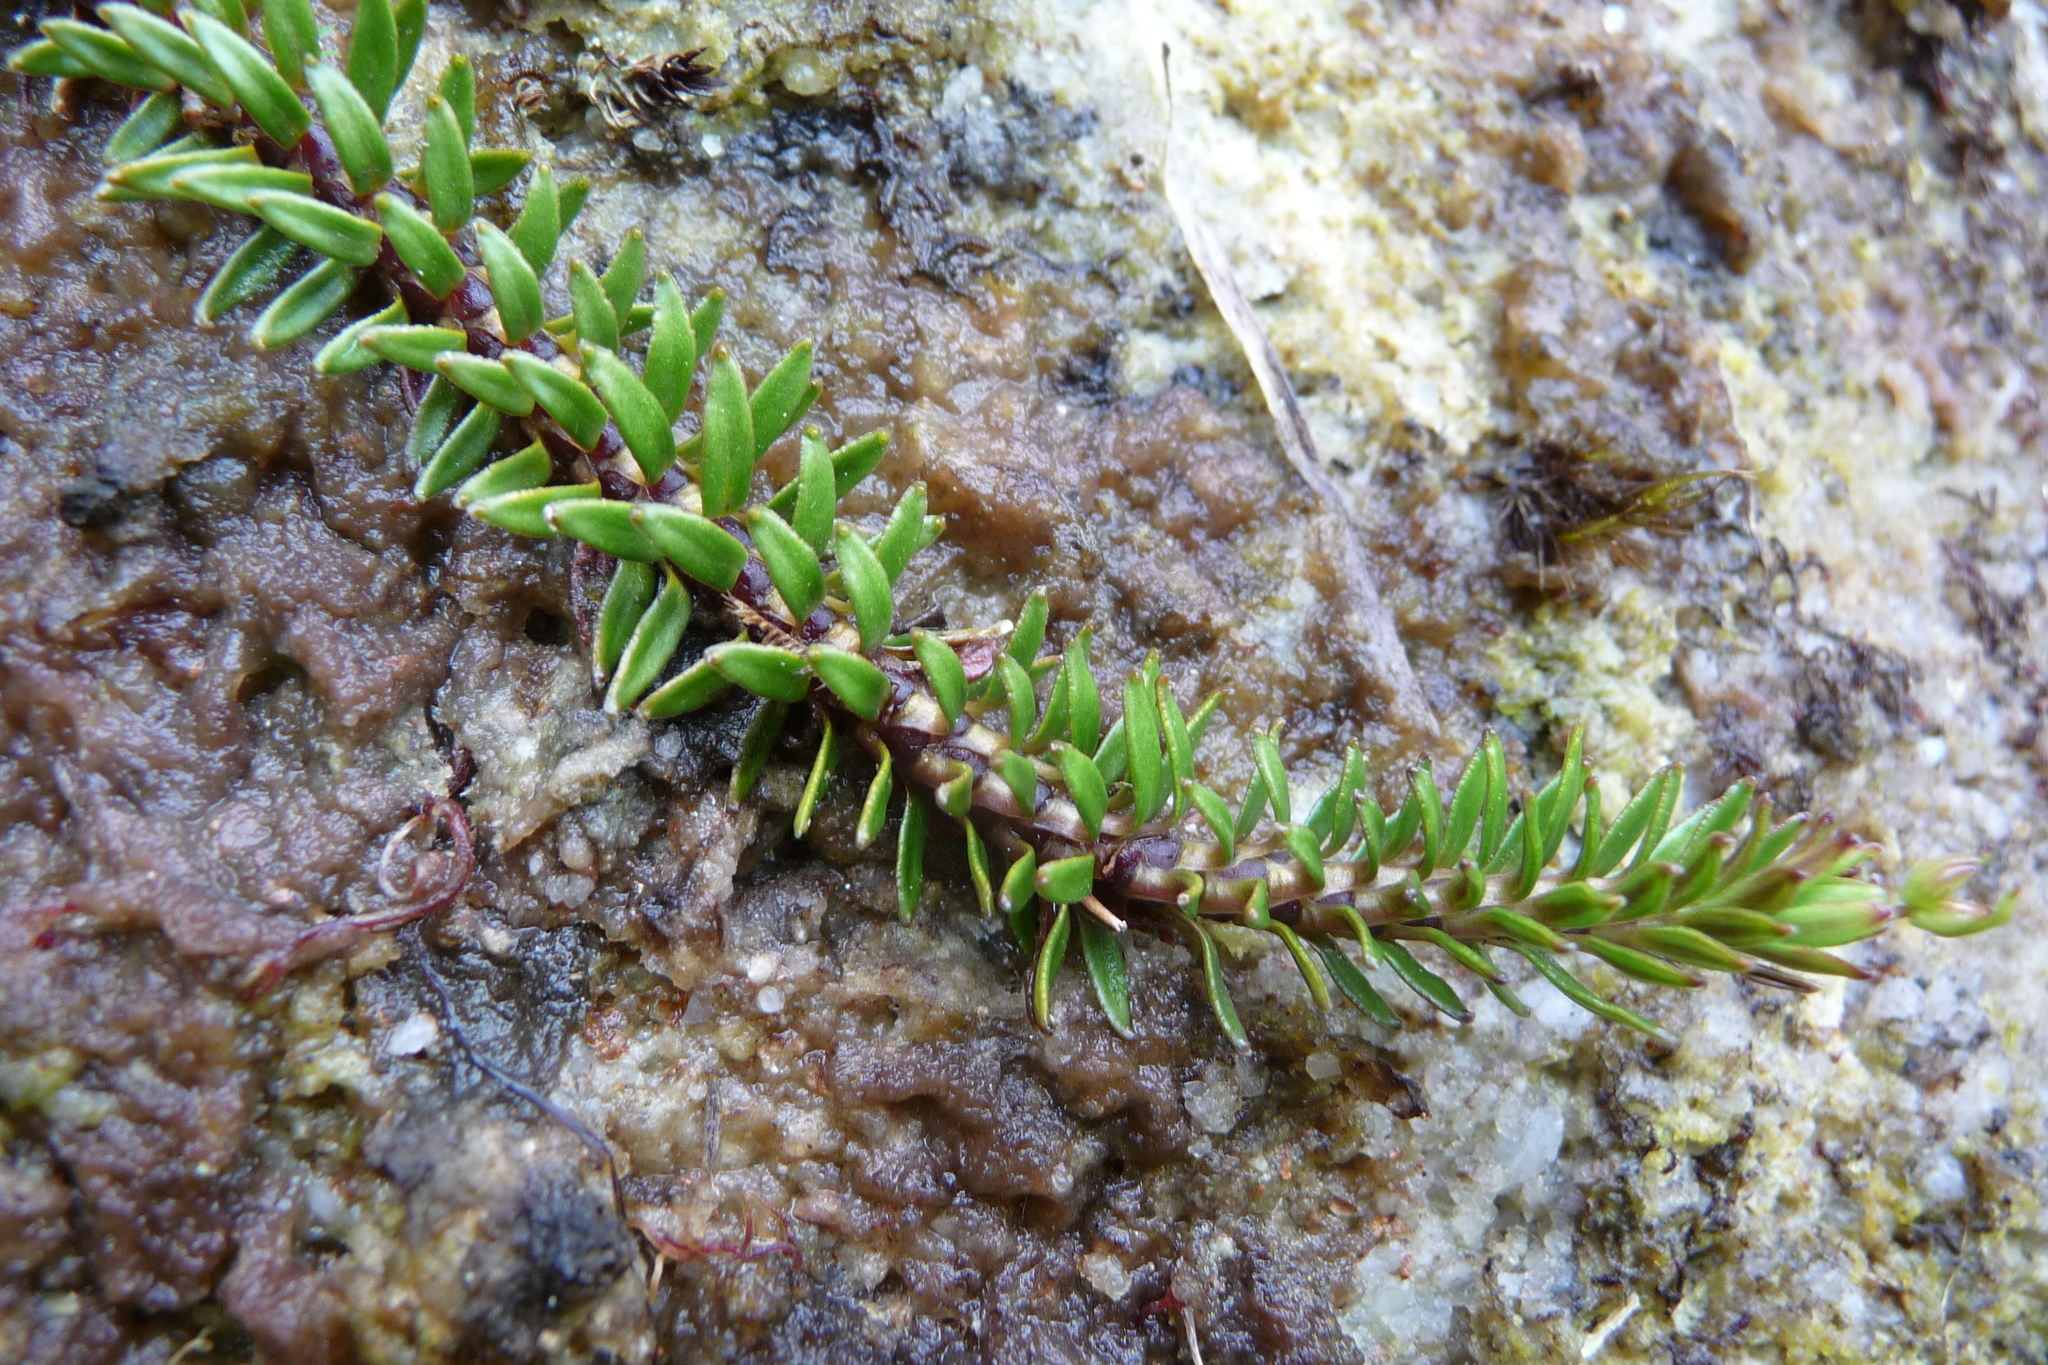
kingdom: Plantae
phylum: Tracheophyta
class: Magnoliopsida
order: Asterales
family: Stylidiaceae
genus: Forstera
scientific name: Forstera mackayi
